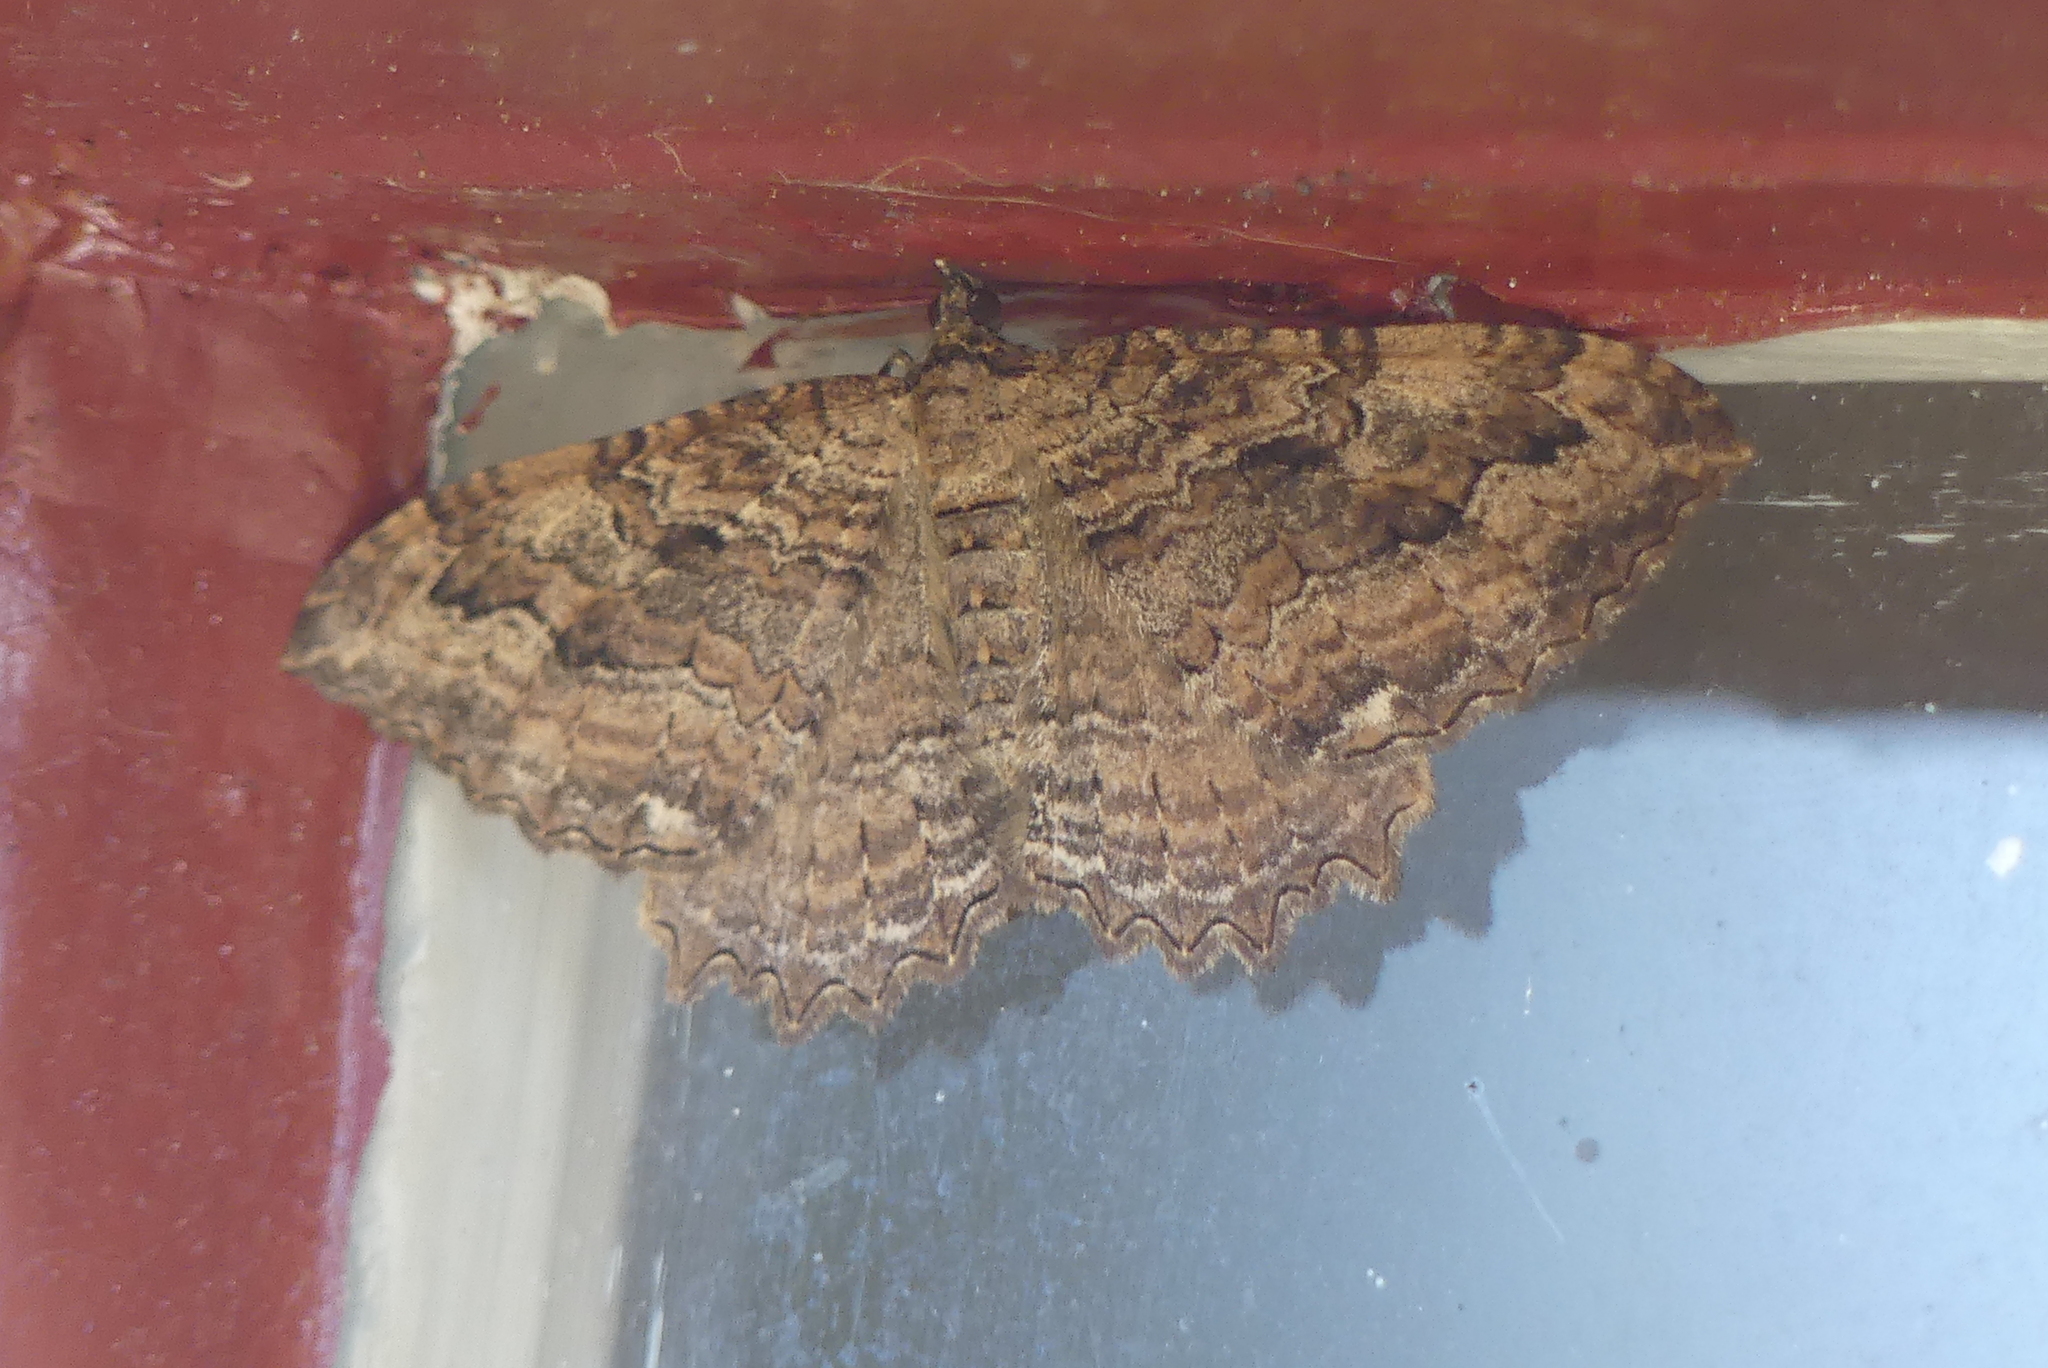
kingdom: Animalia
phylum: Arthropoda
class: Insecta
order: Lepidoptera
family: Geometridae
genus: Rheumaptera
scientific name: Rheumaptera
